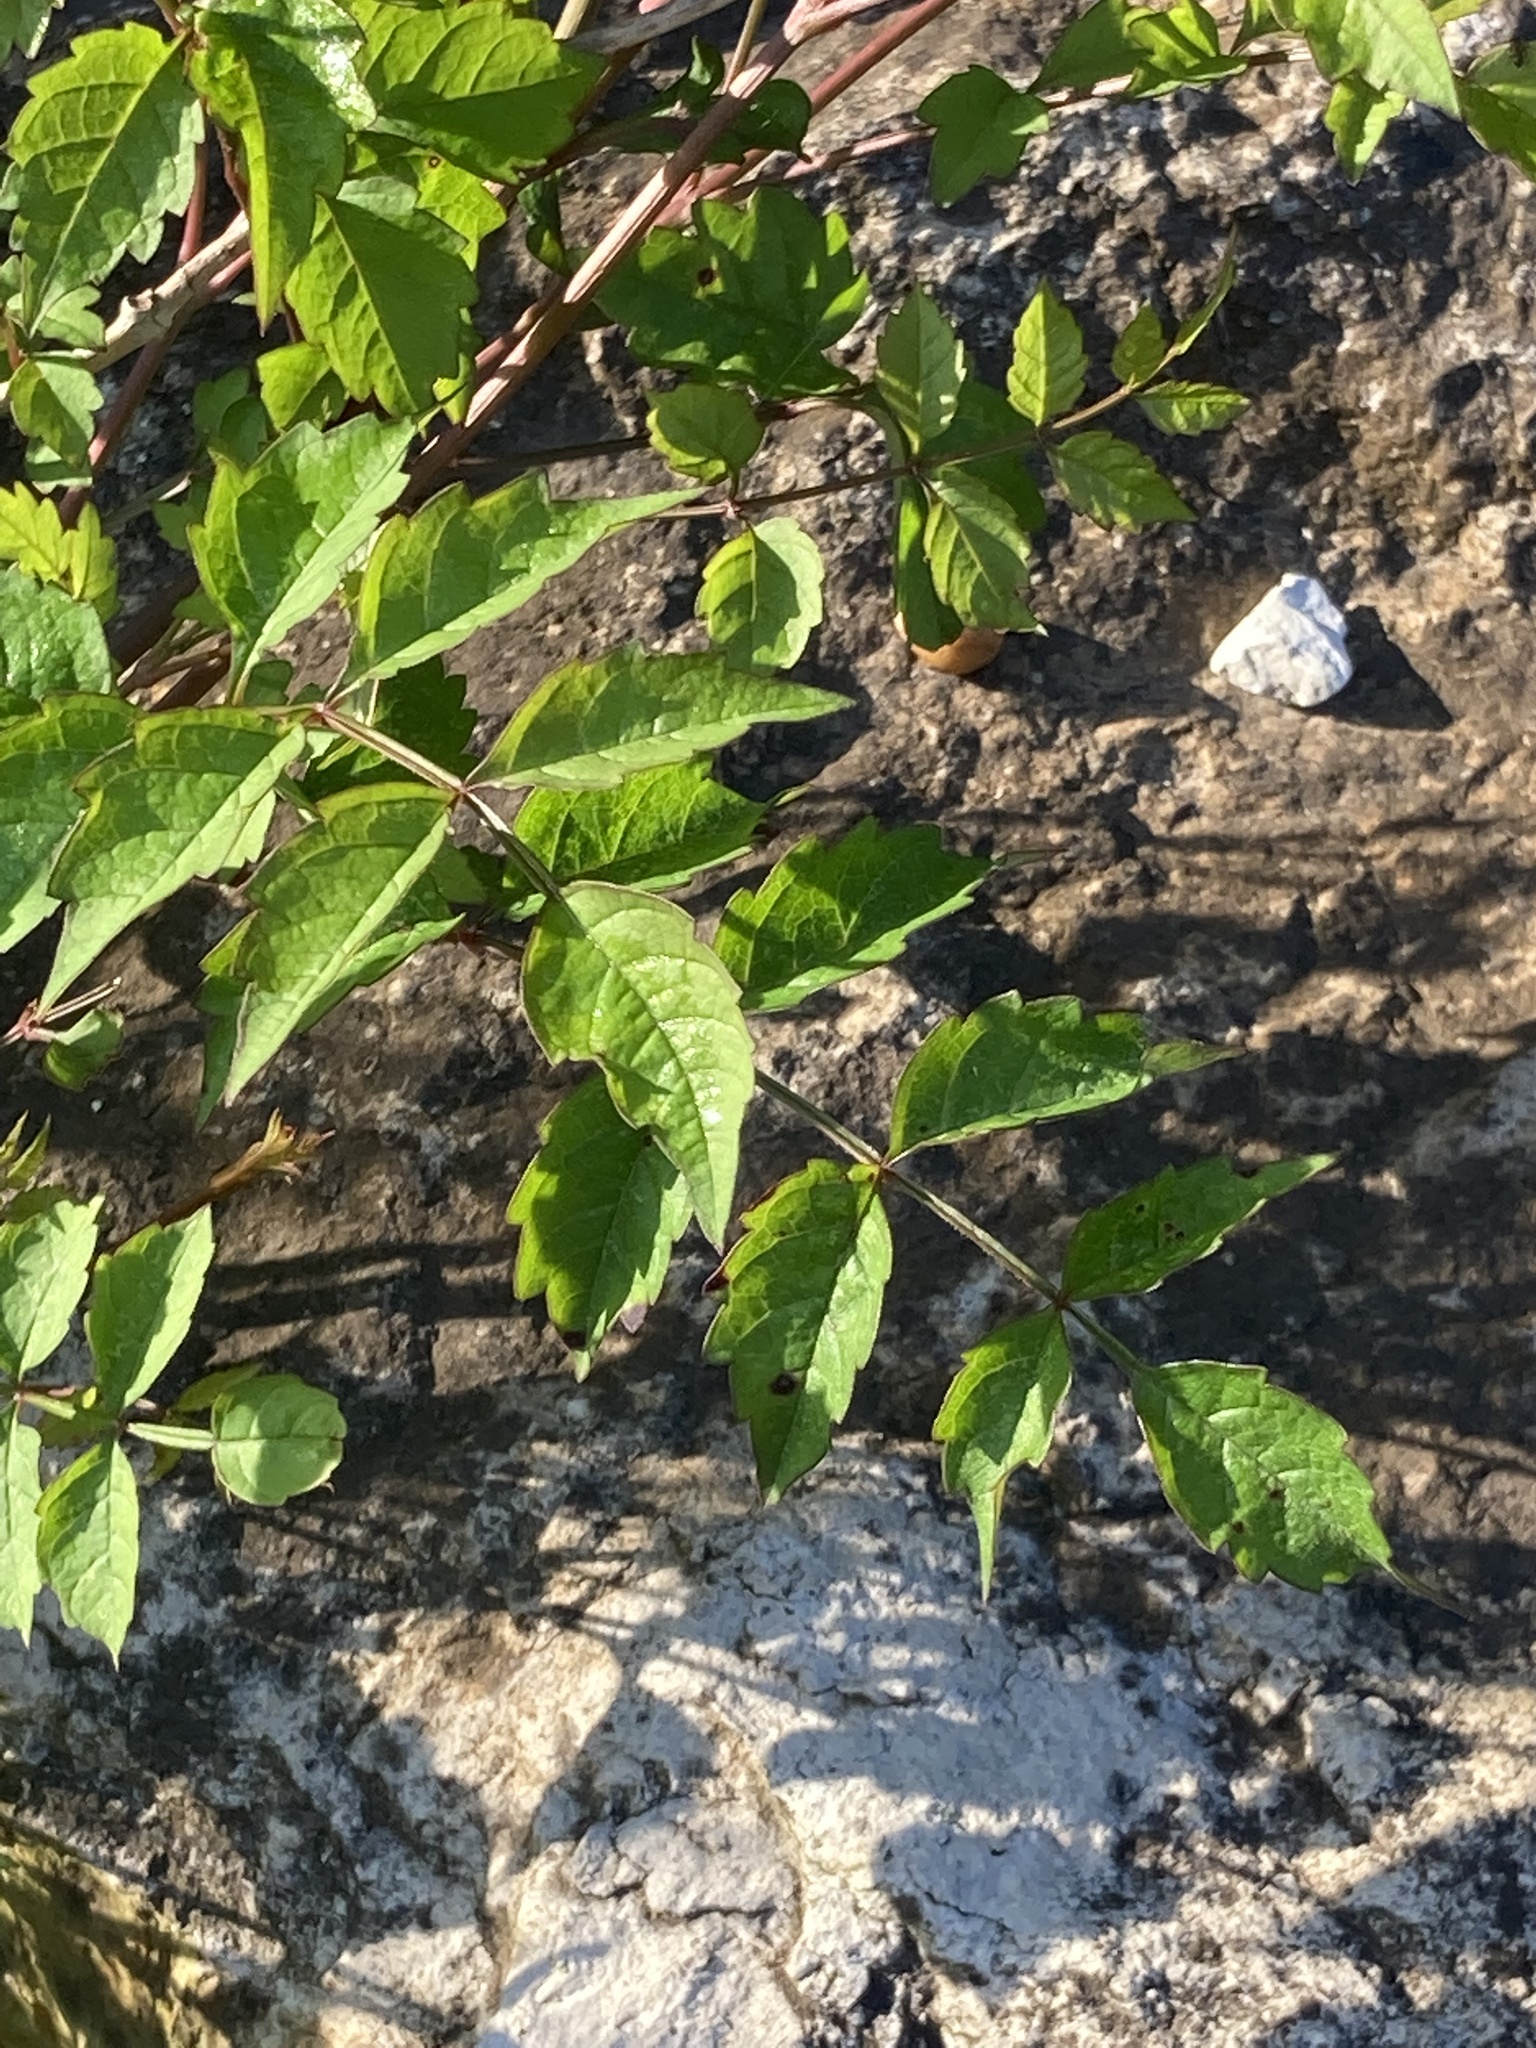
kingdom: Plantae
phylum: Tracheophyta
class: Magnoliopsida
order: Lamiales
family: Bignoniaceae
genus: Campsis
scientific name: Campsis radicans
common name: Trumpet-creeper
